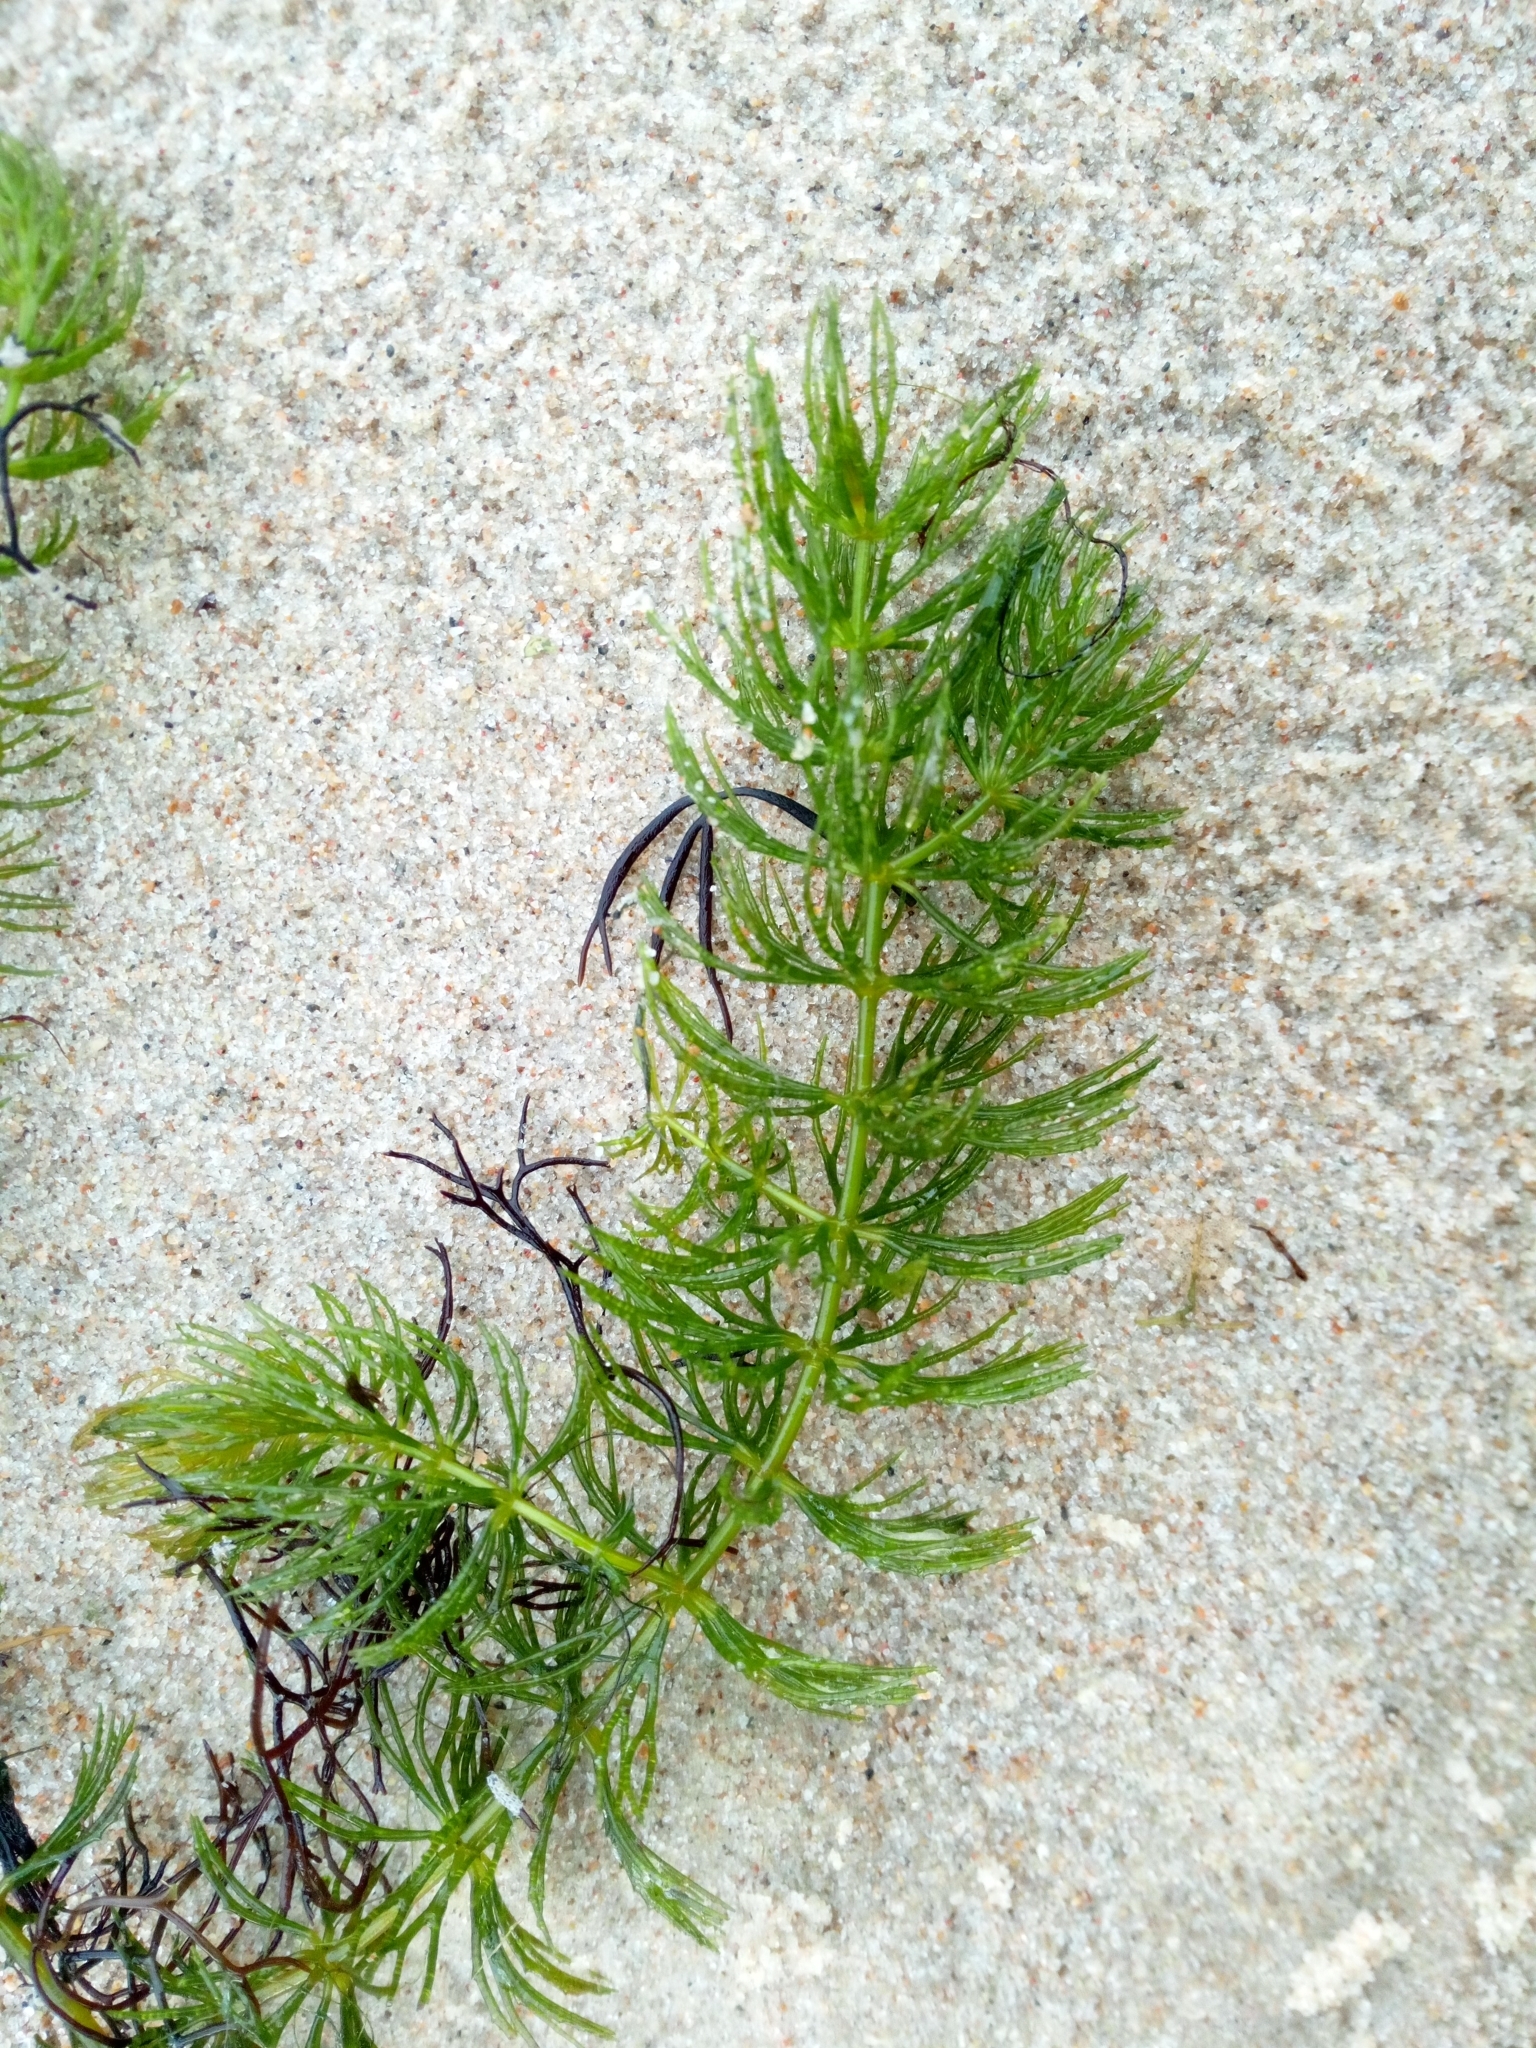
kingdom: Plantae
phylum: Tracheophyta
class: Magnoliopsida
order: Ceratophyllales
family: Ceratophyllaceae
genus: Ceratophyllum
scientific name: Ceratophyllum demersum
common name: Rigid hornwort
